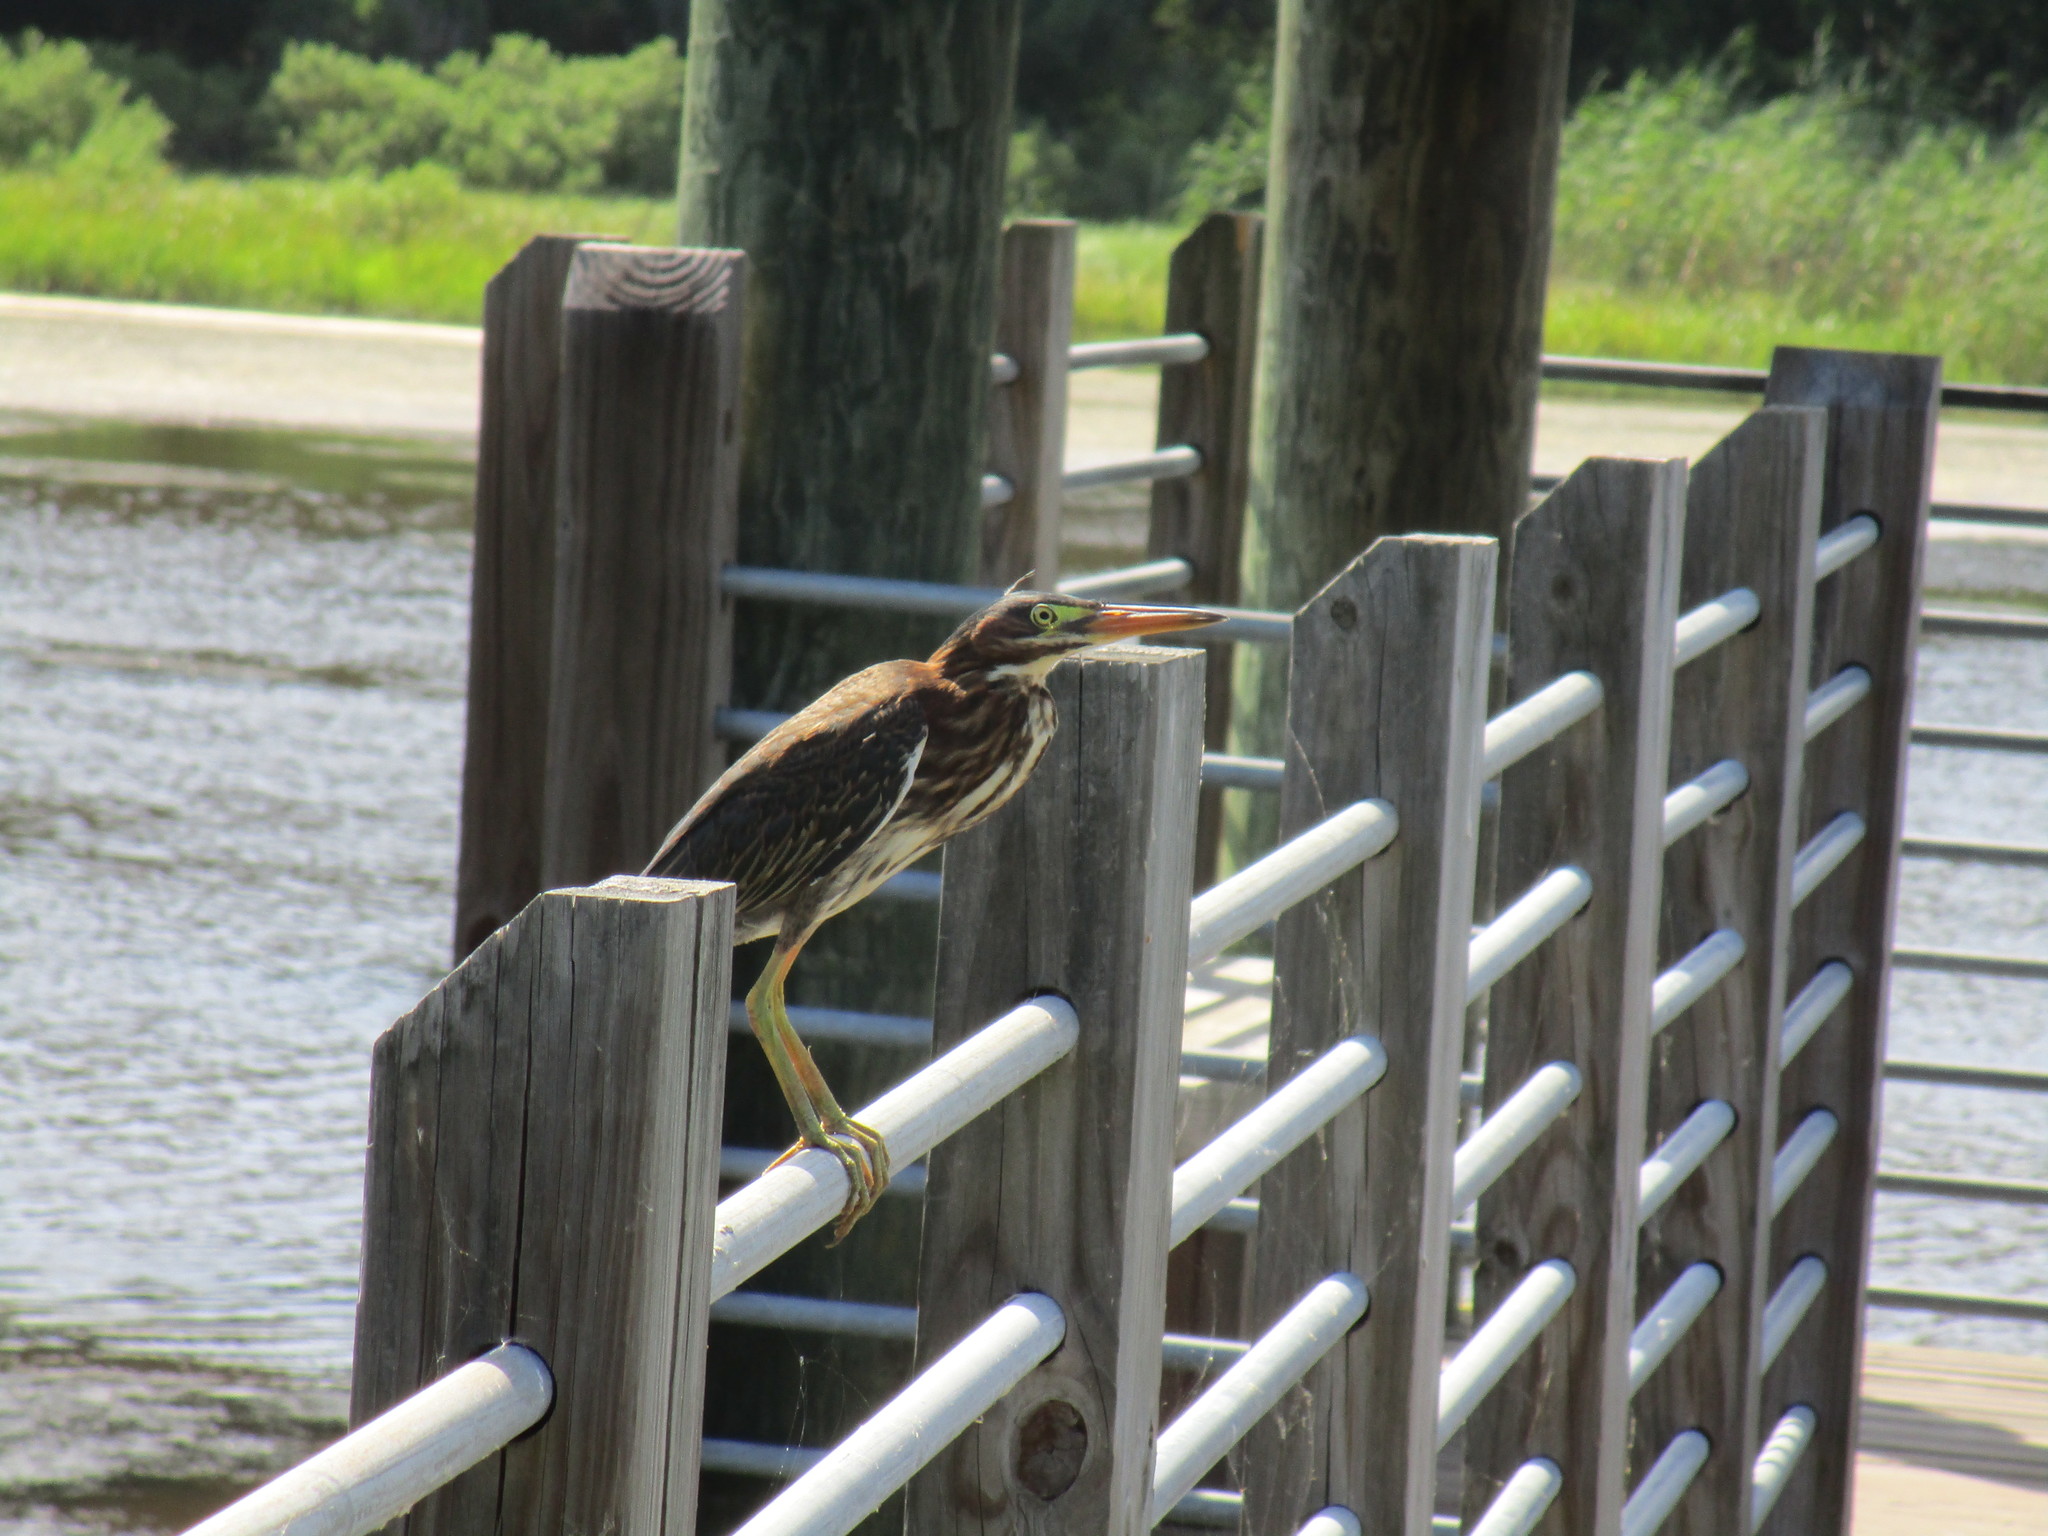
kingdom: Animalia
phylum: Chordata
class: Aves
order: Pelecaniformes
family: Ardeidae
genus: Butorides
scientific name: Butorides virescens
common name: Green heron
